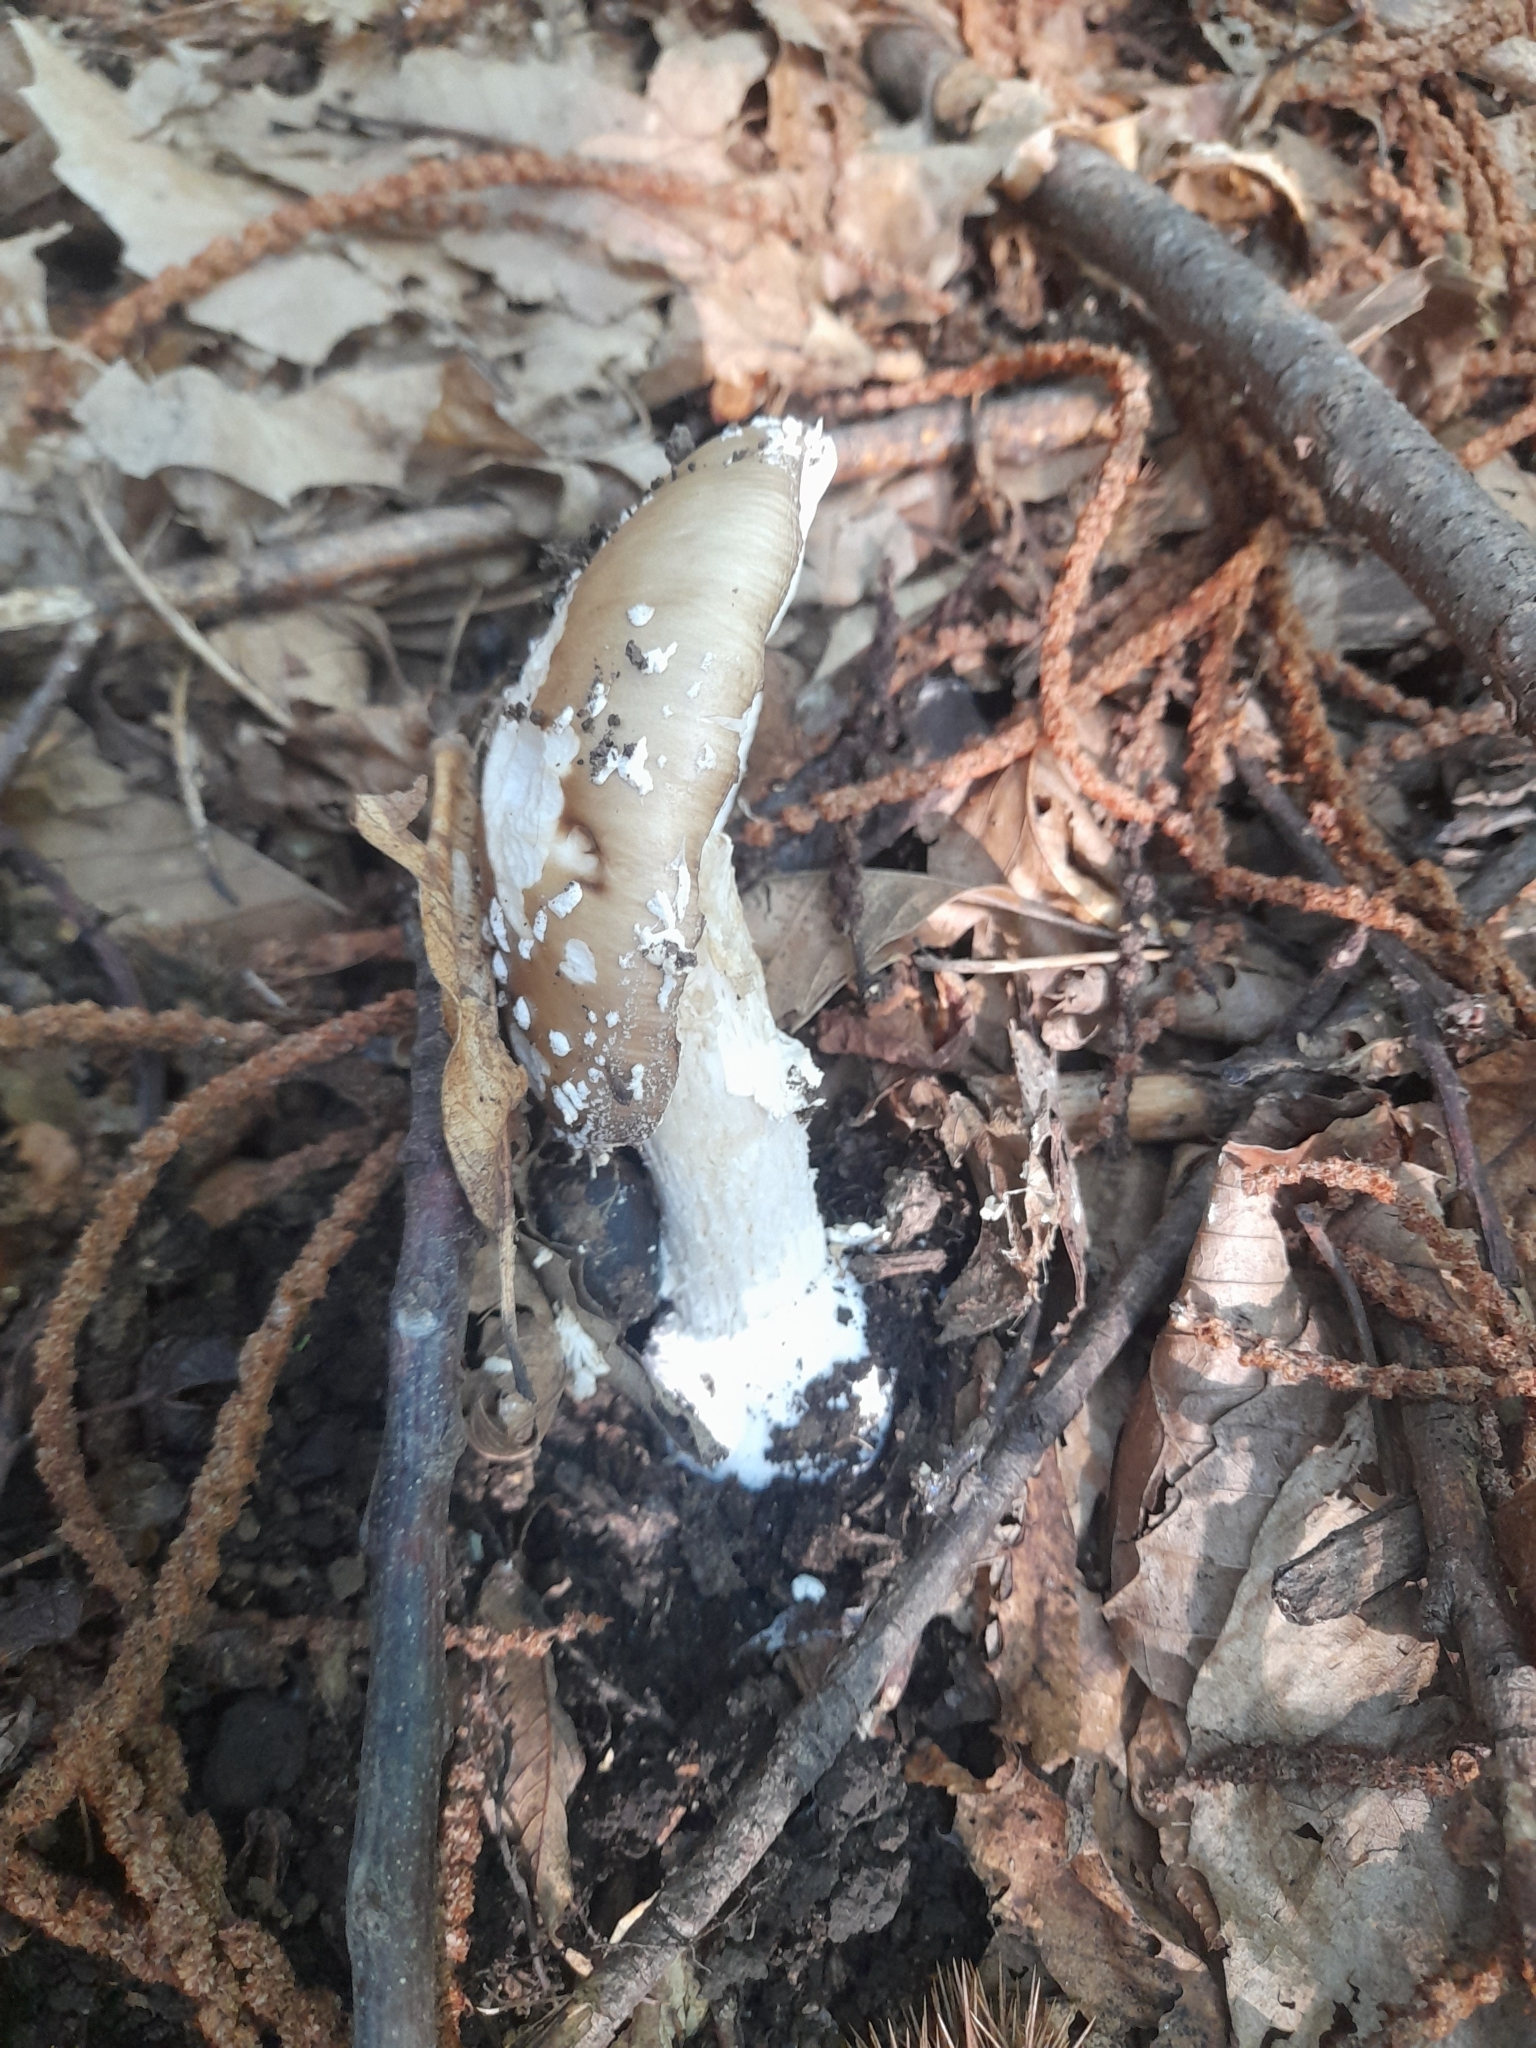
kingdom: Fungi
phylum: Basidiomycota
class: Agaricomycetes
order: Agaricales
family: Amanitaceae
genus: Amanita
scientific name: Amanita pantherina
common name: Panthercap
